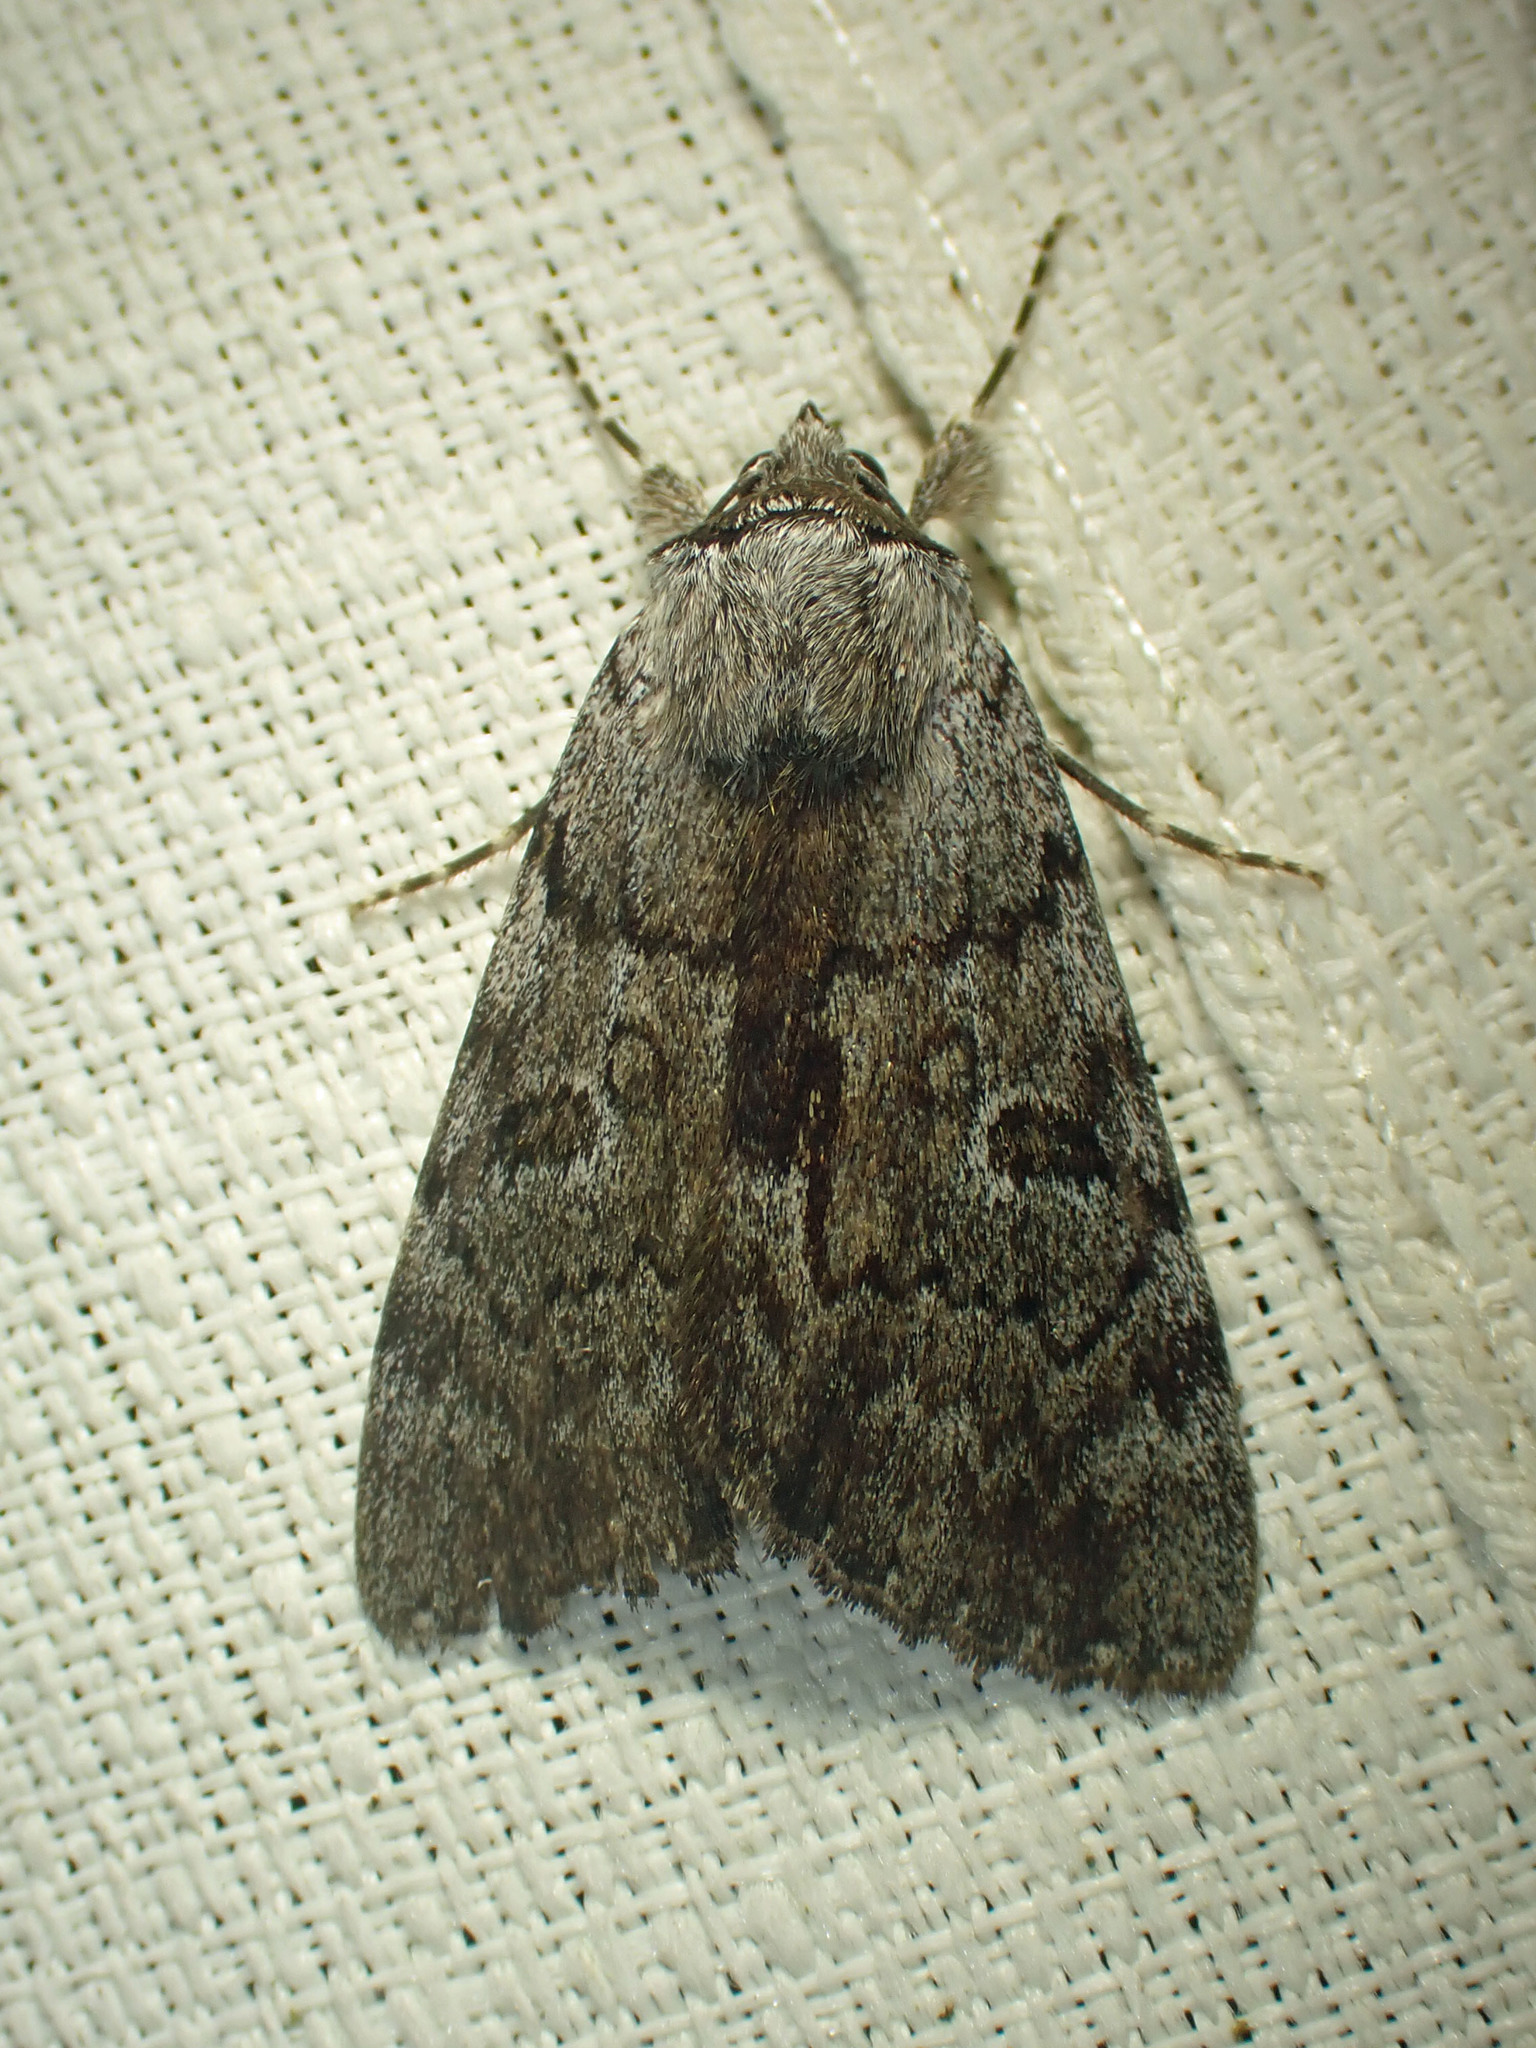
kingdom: Animalia
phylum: Arthropoda
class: Insecta
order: Lepidoptera
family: Erebidae
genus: Catocala
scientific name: Catocala sordida
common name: Sordid underwing
